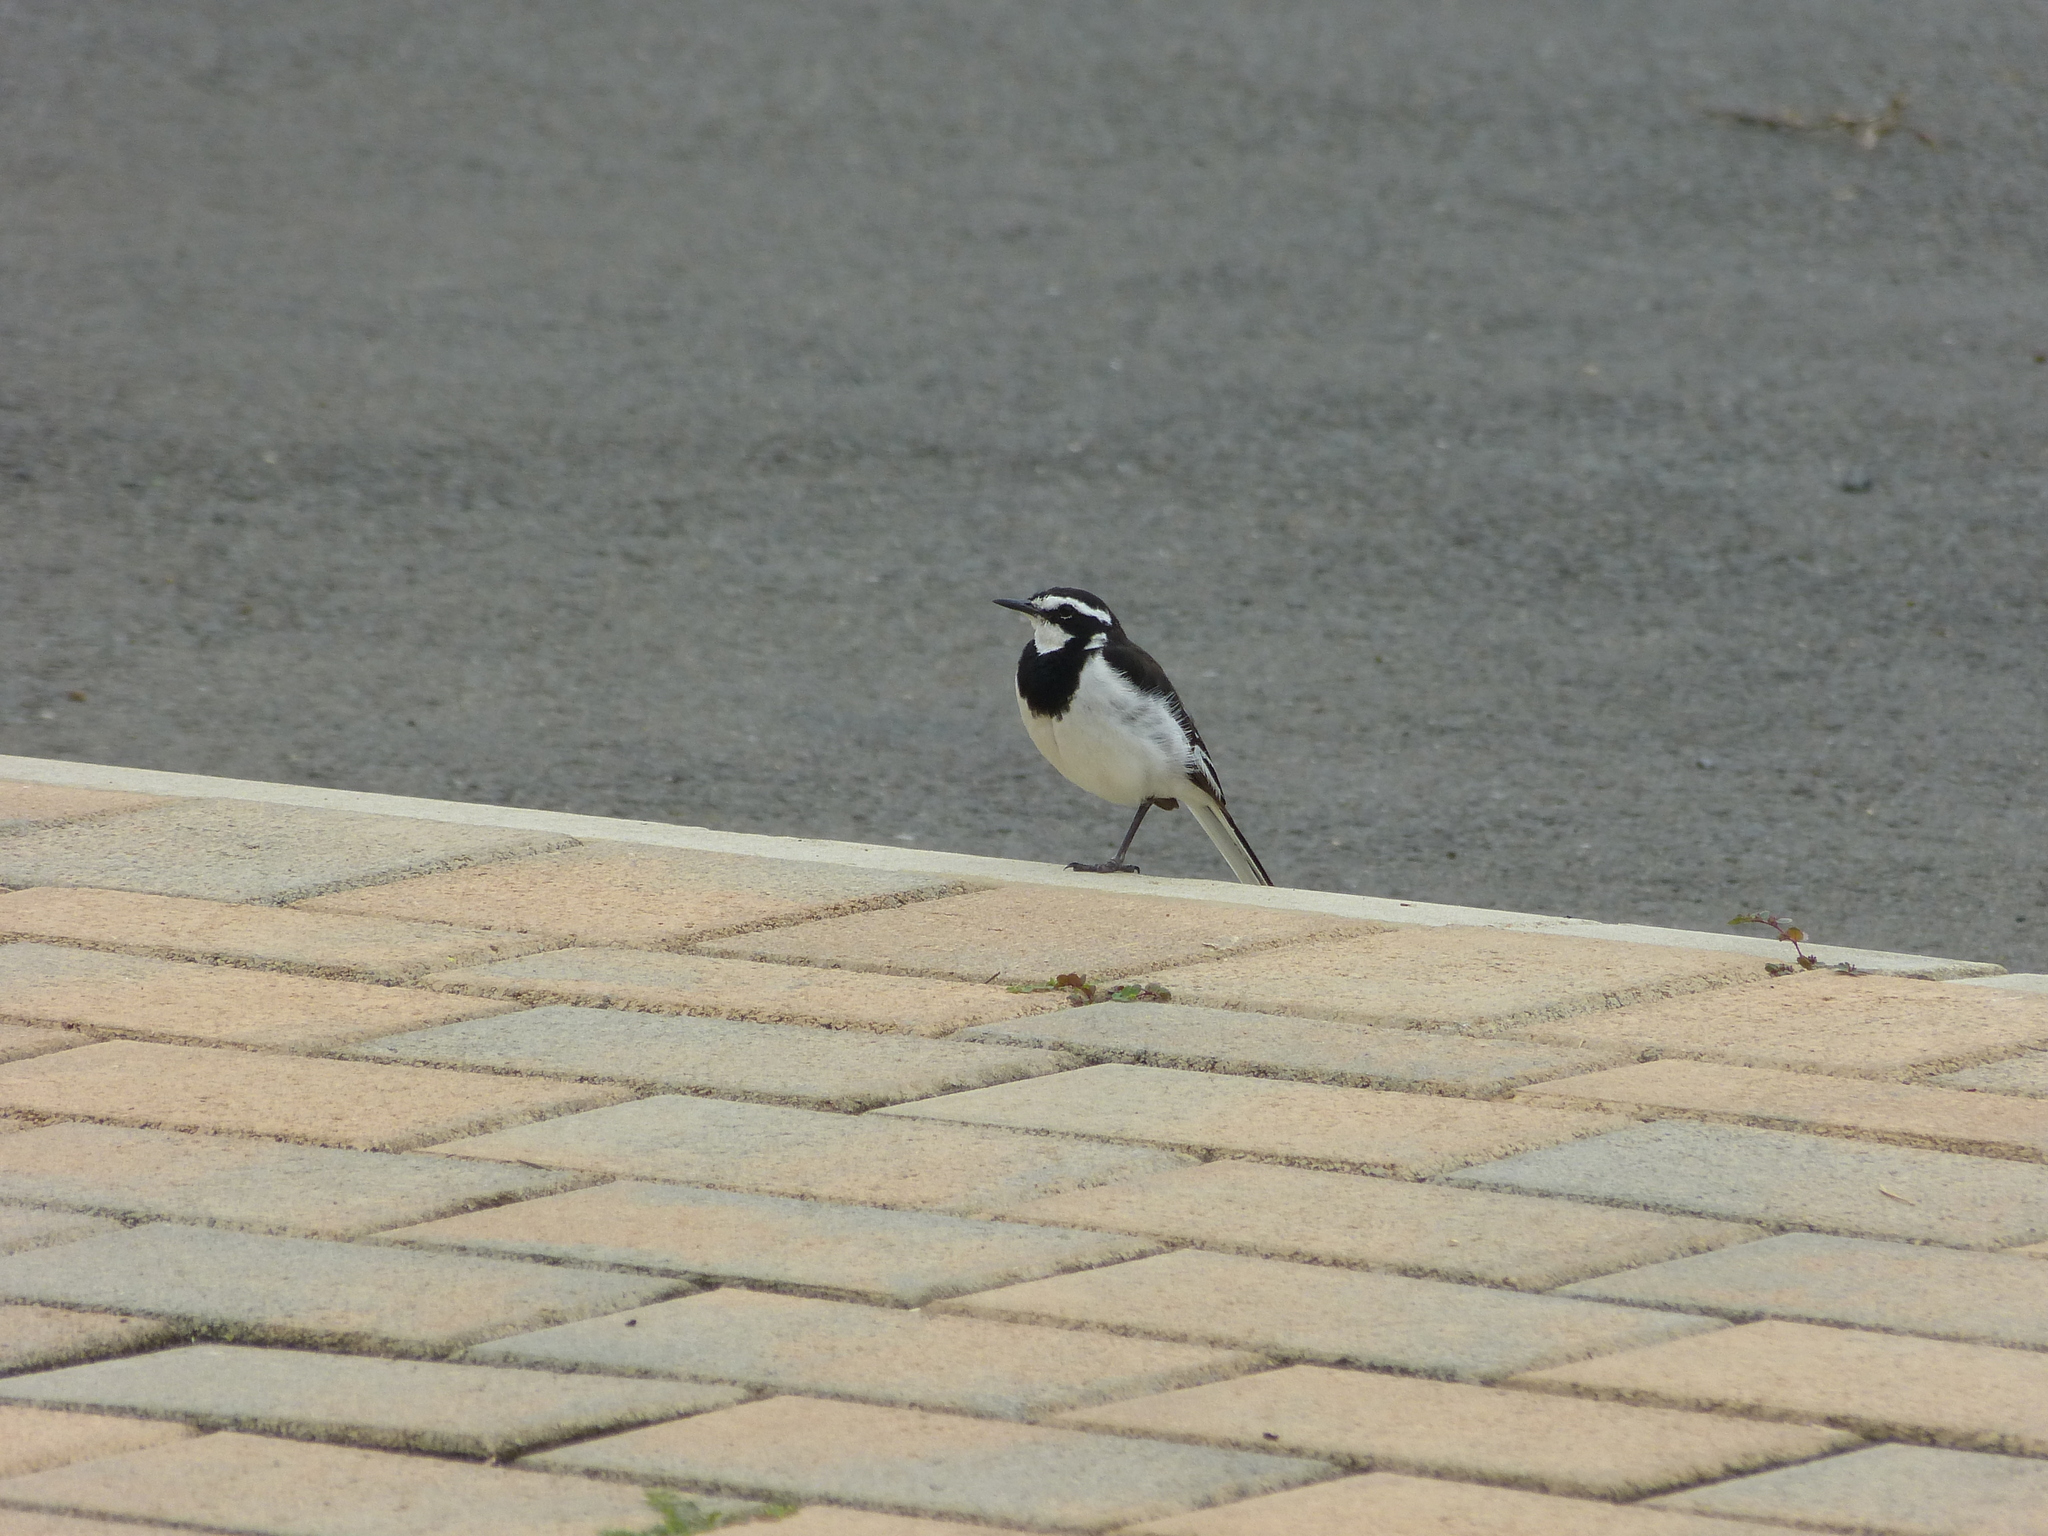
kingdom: Animalia
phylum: Chordata
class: Aves
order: Passeriformes
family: Motacillidae
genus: Motacilla
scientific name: Motacilla aguimp
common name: African pied wagtail
